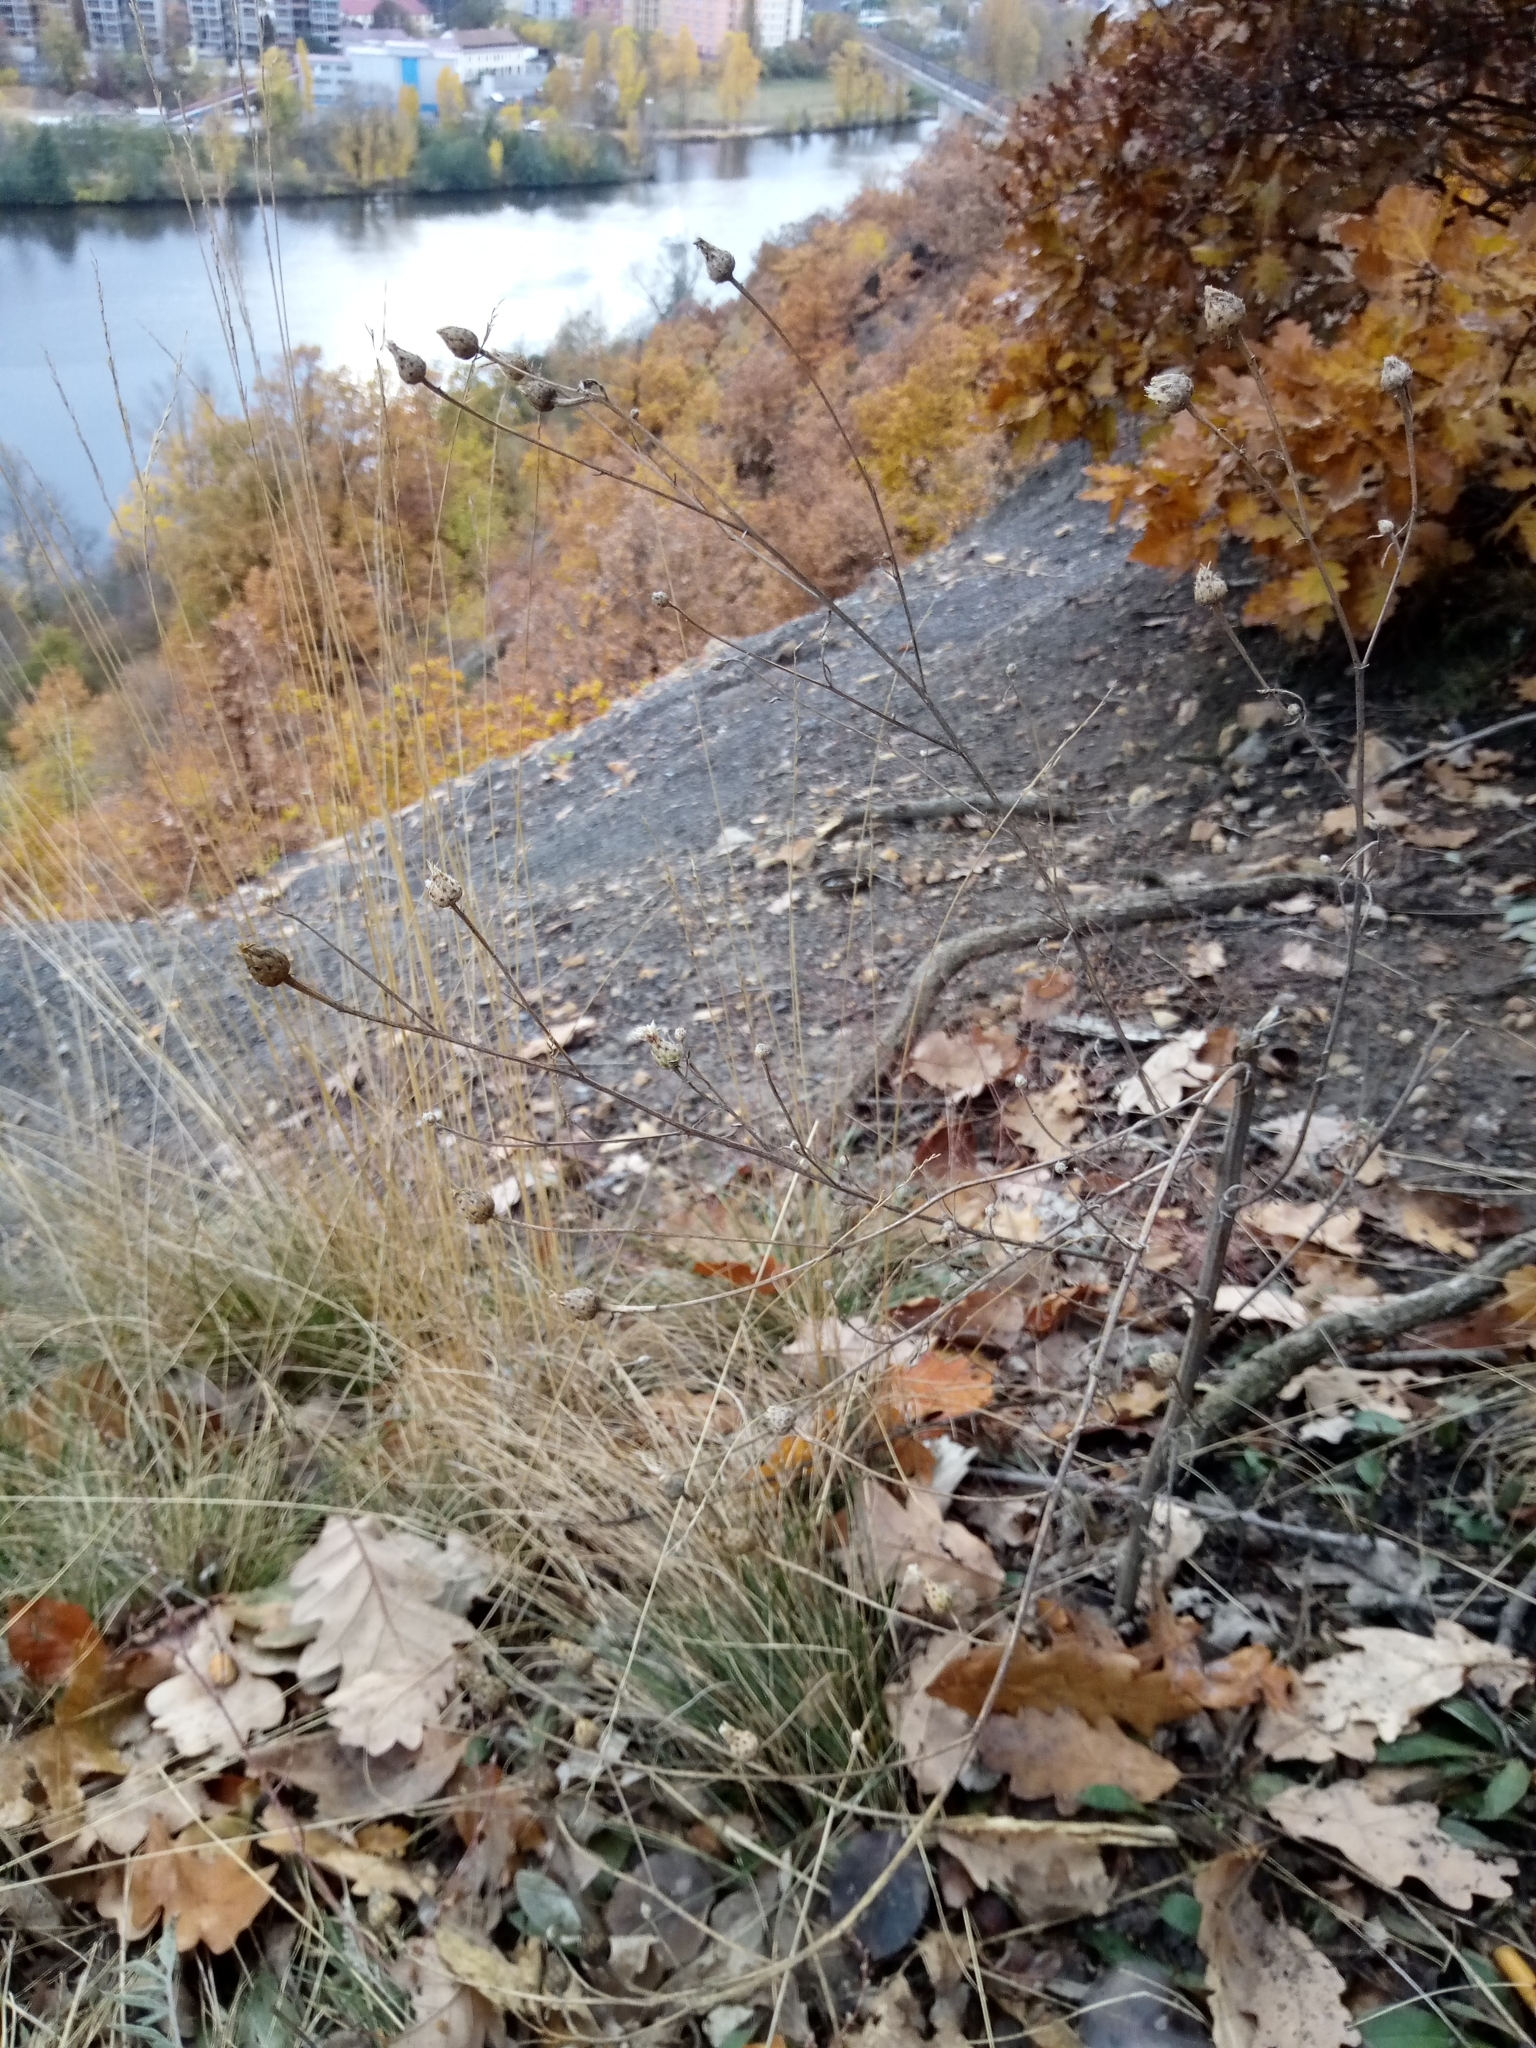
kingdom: Plantae
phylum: Tracheophyta
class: Magnoliopsida
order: Asterales
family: Asteraceae
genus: Centaurea
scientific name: Centaurea stoebe
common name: Spotted knapweed
